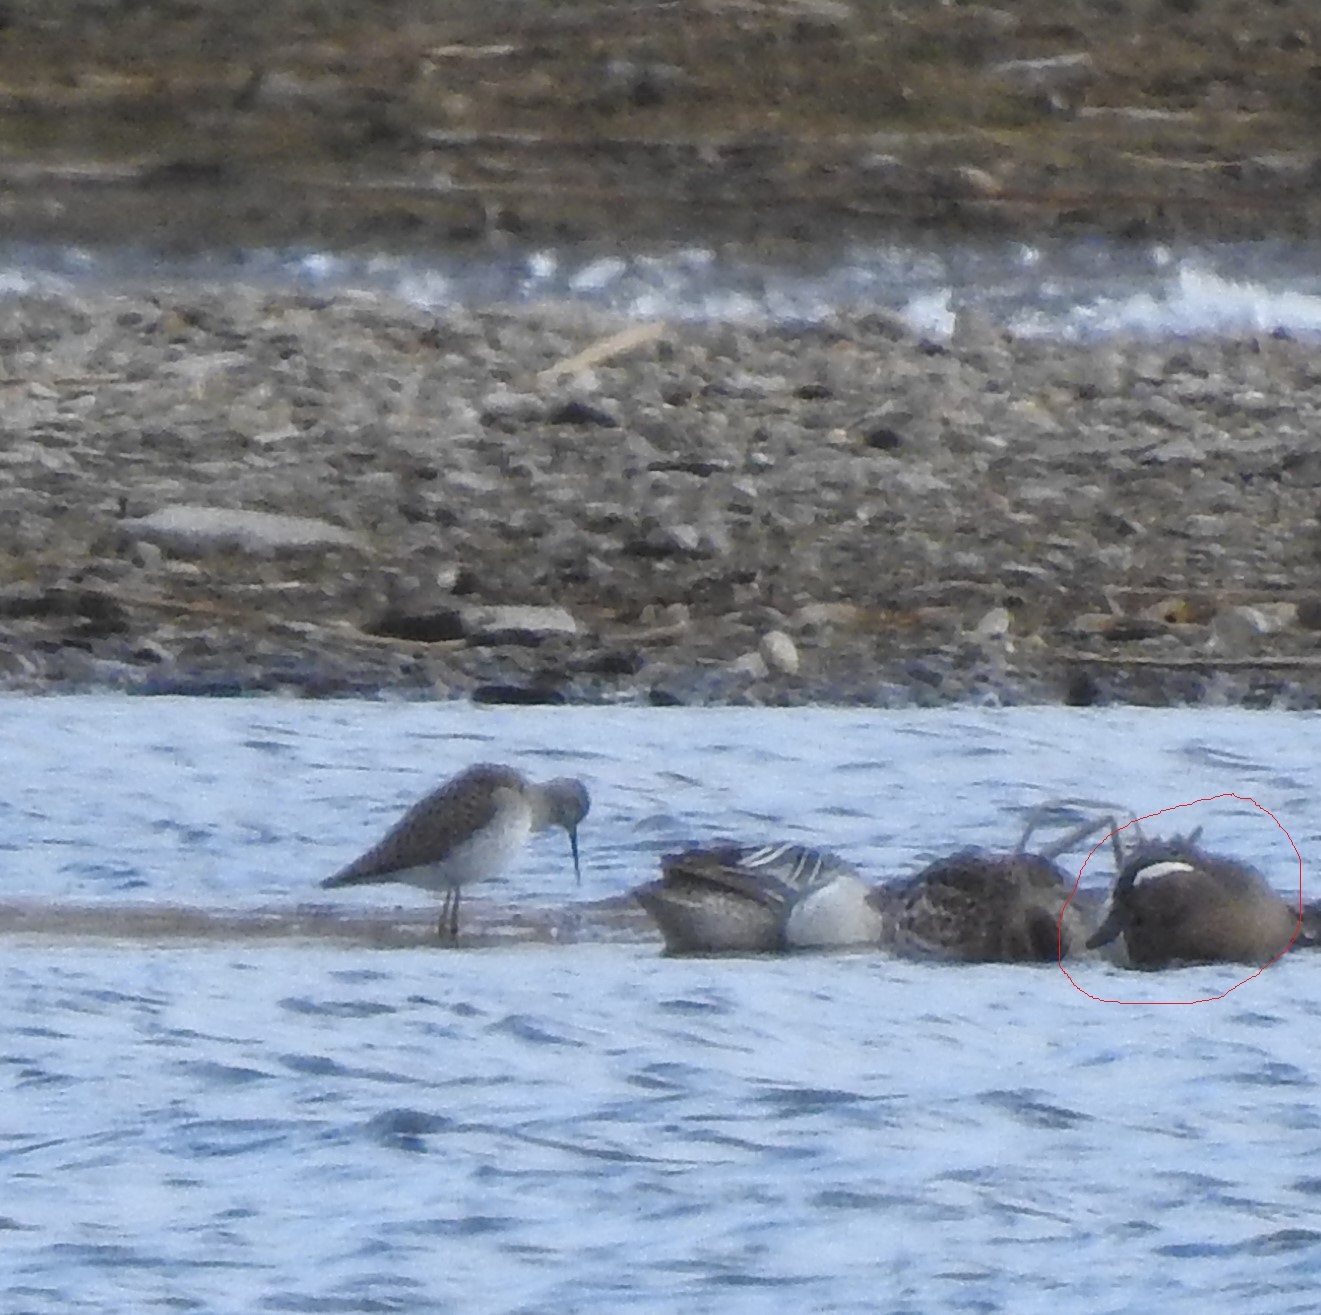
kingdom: Animalia
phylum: Chordata
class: Aves
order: Anseriformes
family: Anatidae
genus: Spatula
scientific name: Spatula querquedula
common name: Garganey
